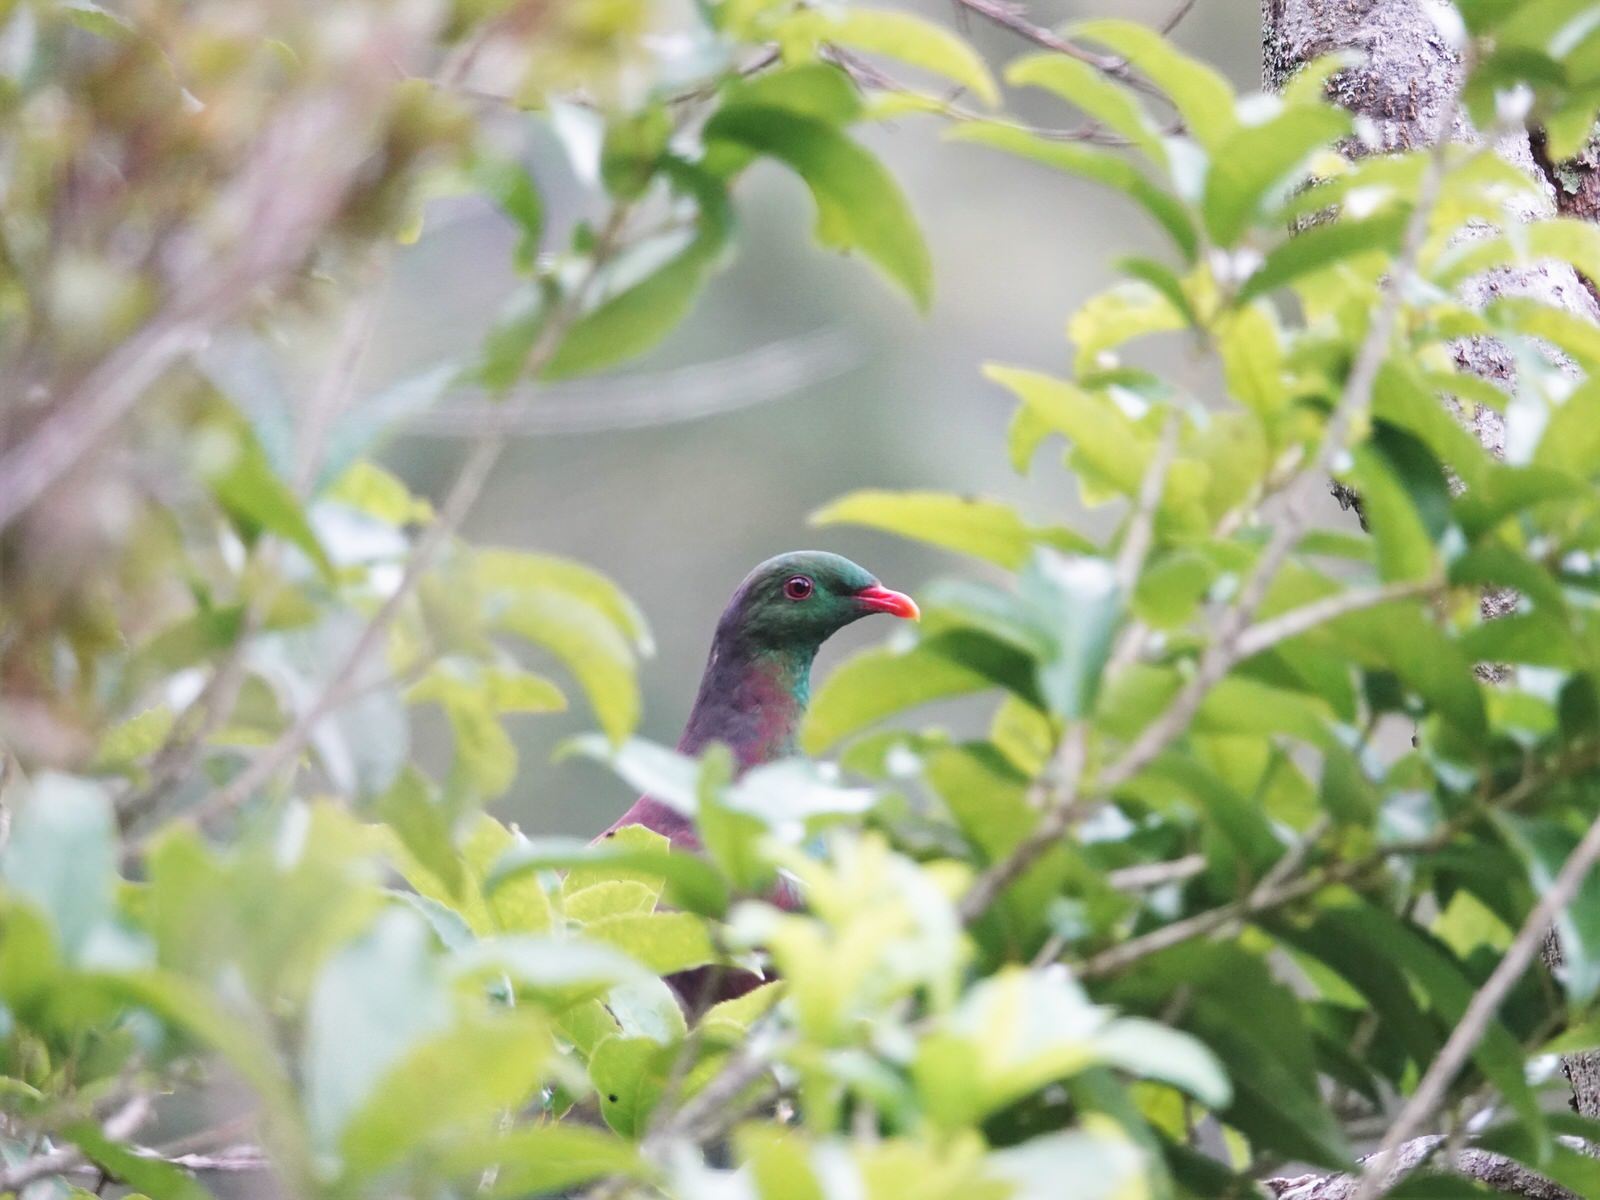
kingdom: Animalia
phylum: Chordata
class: Aves
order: Columbiformes
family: Columbidae
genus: Hemiphaga
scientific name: Hemiphaga novaeseelandiae
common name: New zealand pigeon
